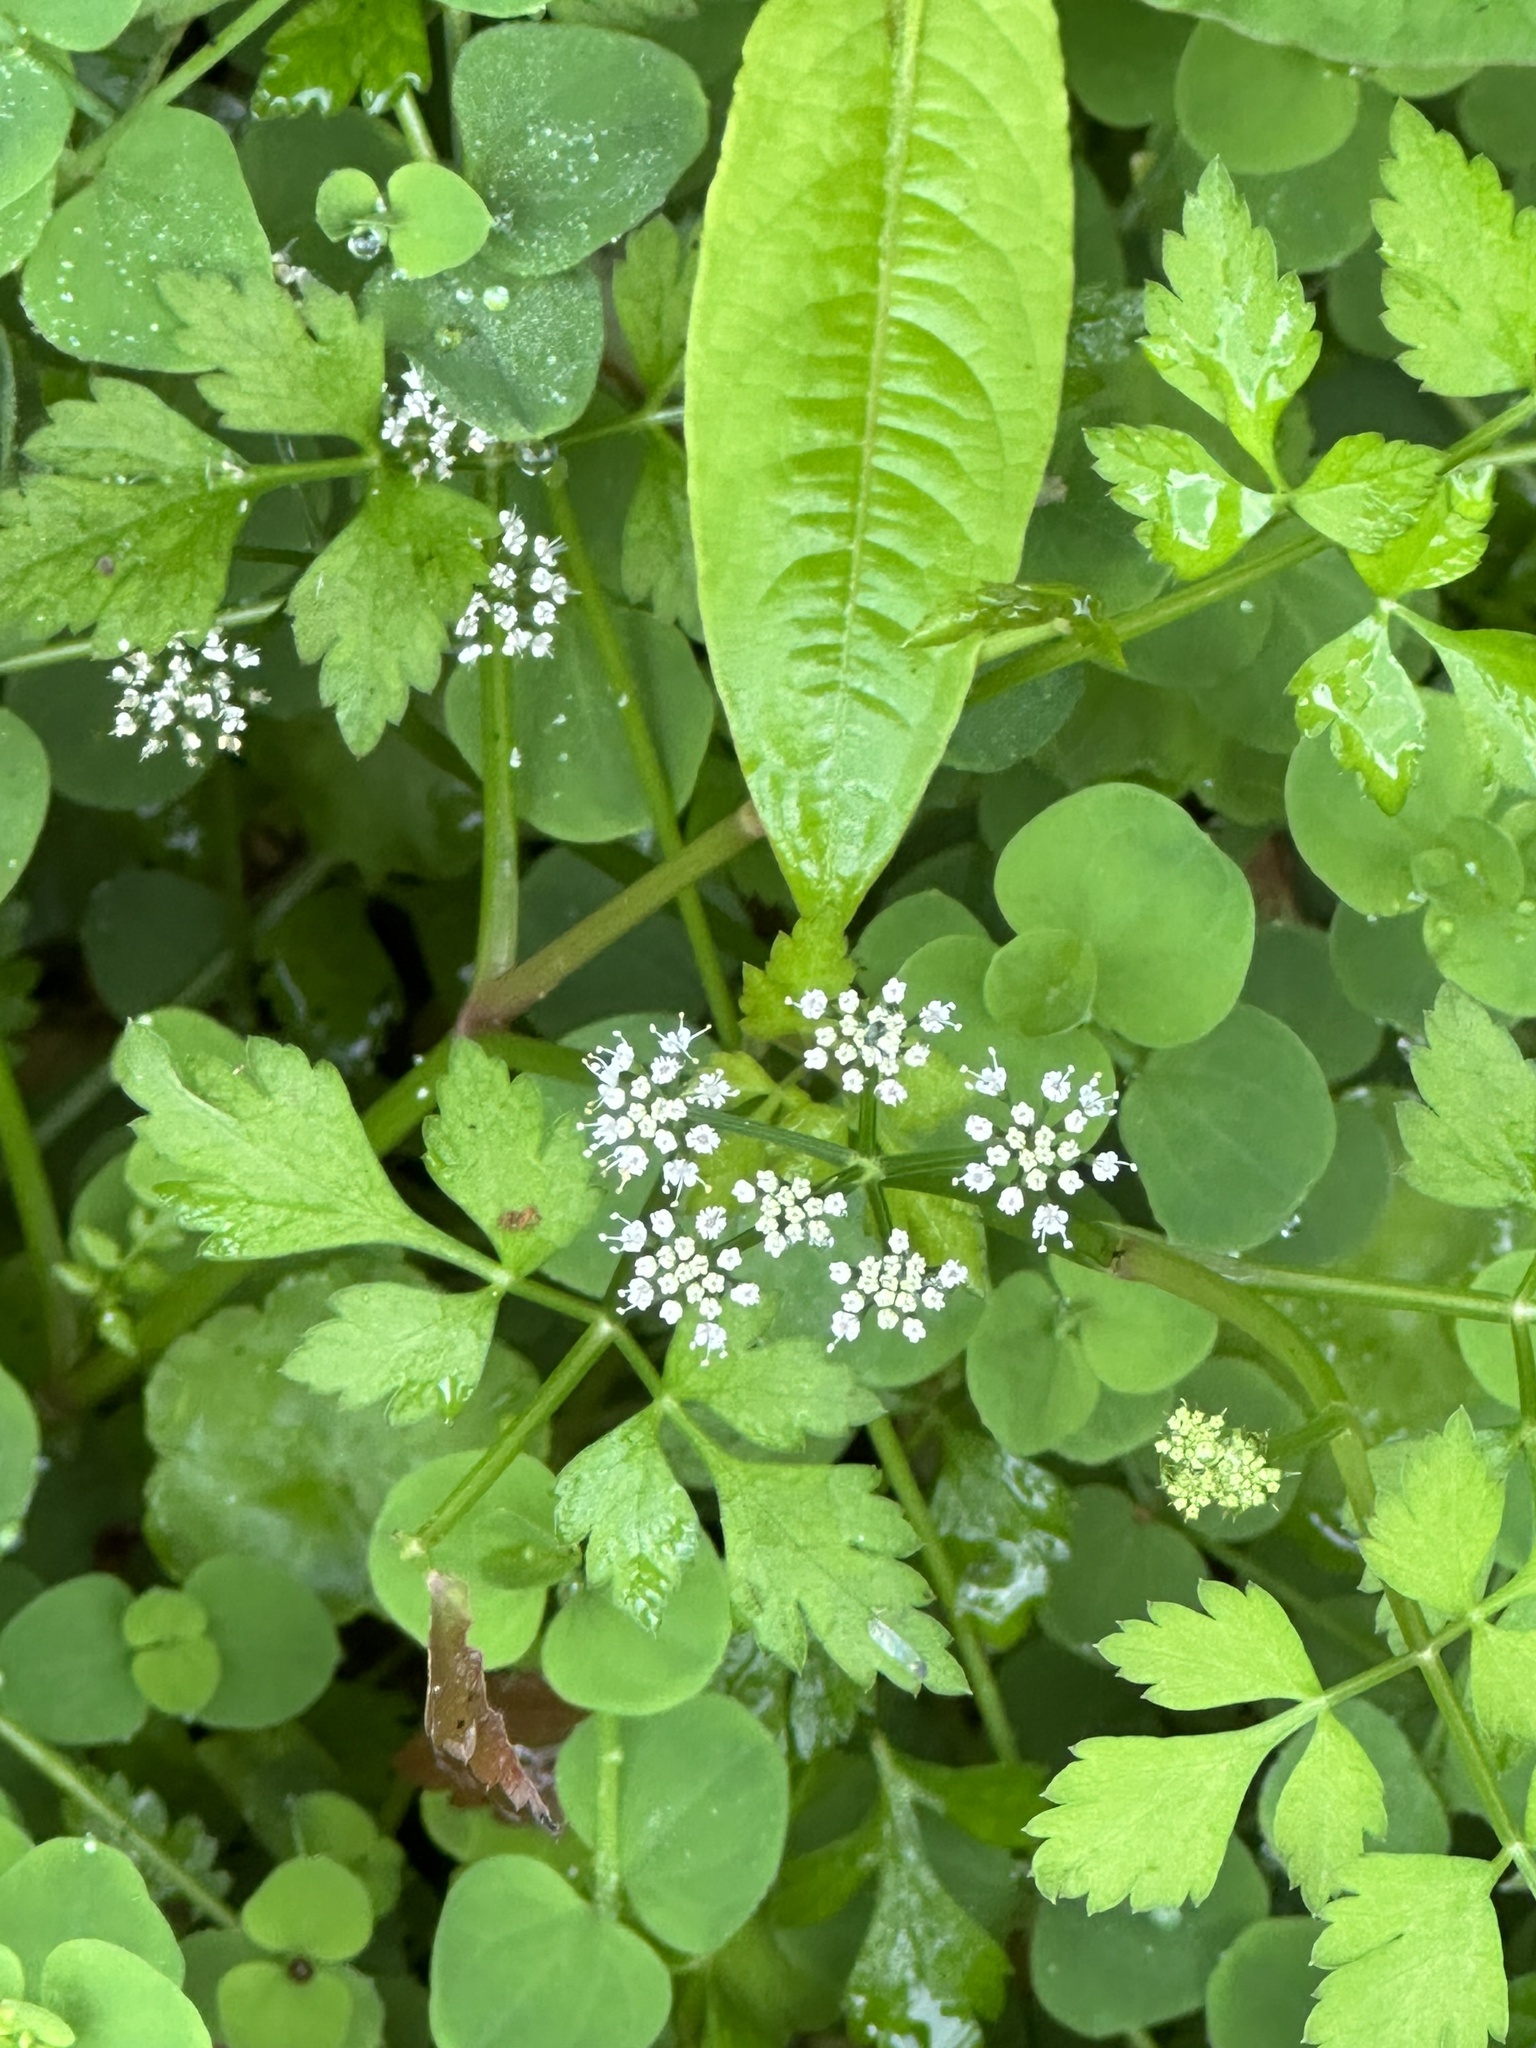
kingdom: Plantae
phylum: Tracheophyta
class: Magnoliopsida
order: Apiales
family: Apiaceae
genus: Oenanthe
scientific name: Oenanthe javanica
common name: Java water-dropwort
